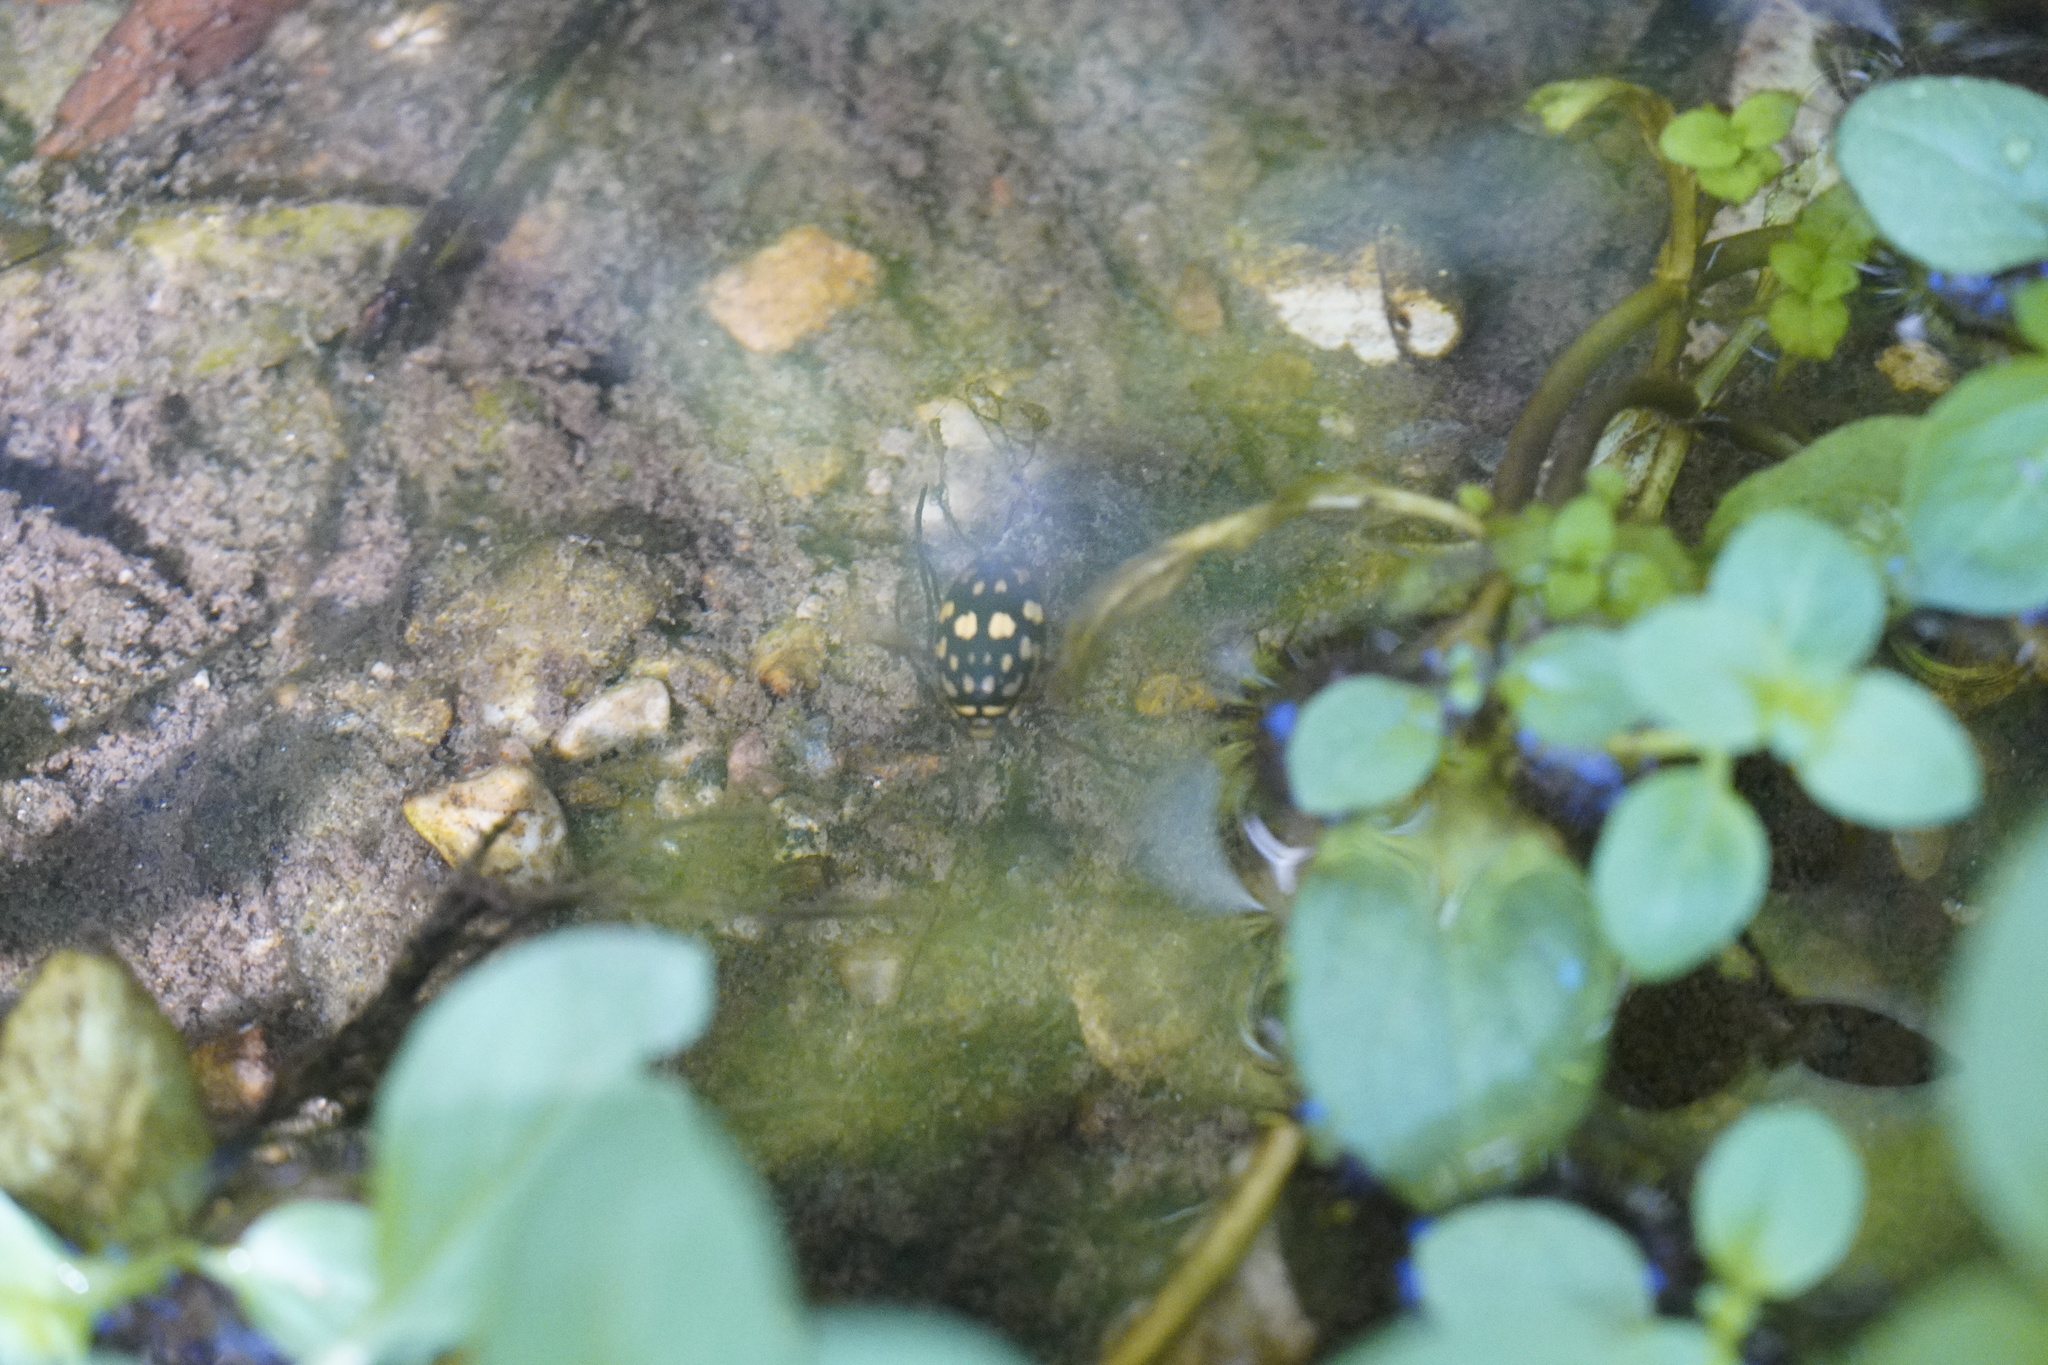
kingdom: Animalia
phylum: Arthropoda
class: Insecta
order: Coleoptera
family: Dytiscidae
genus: Thermonectus
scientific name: Thermonectus marmoratus
